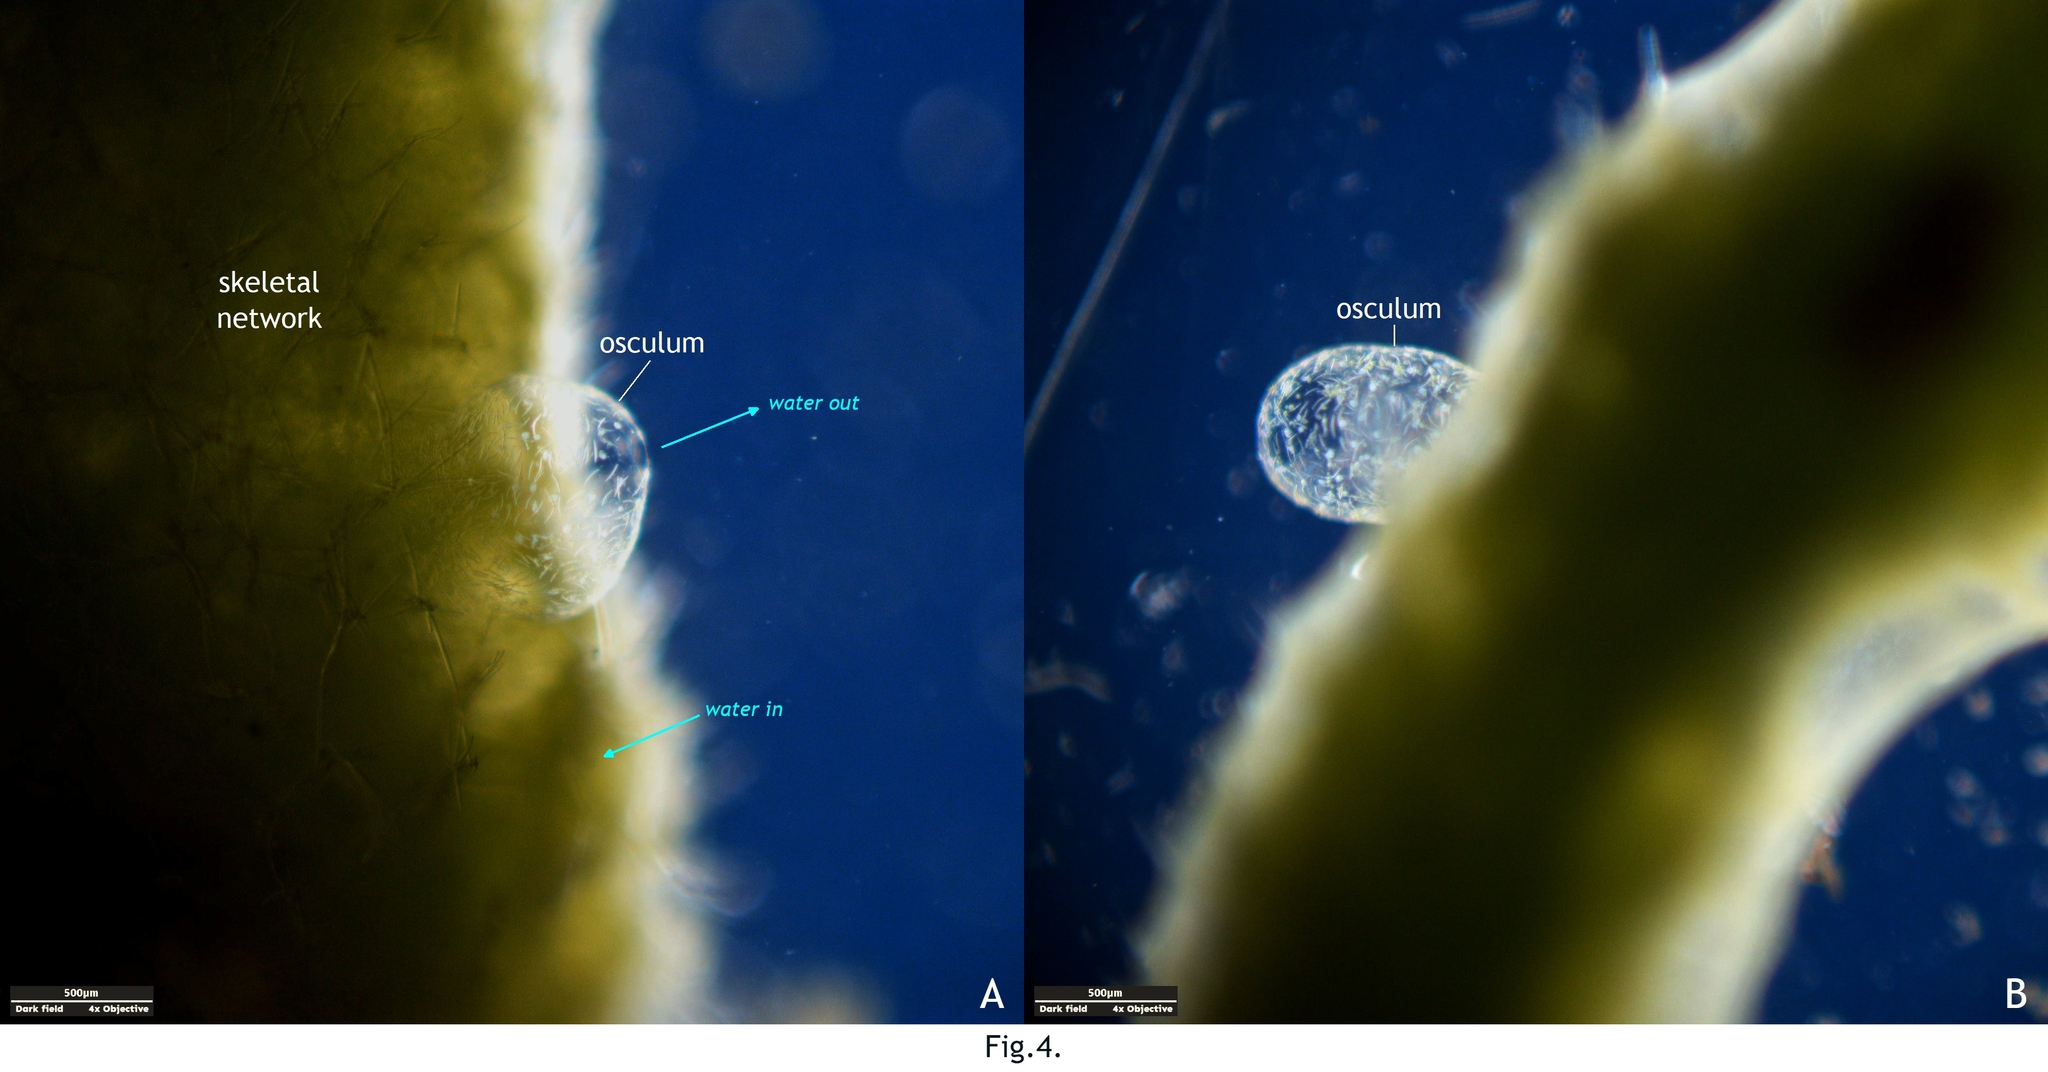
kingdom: Animalia
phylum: Porifera
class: Demospongiae
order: Spongillida
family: Spongillidae
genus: Spongilla
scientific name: Spongilla lacustris
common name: Common freshwater sponge
